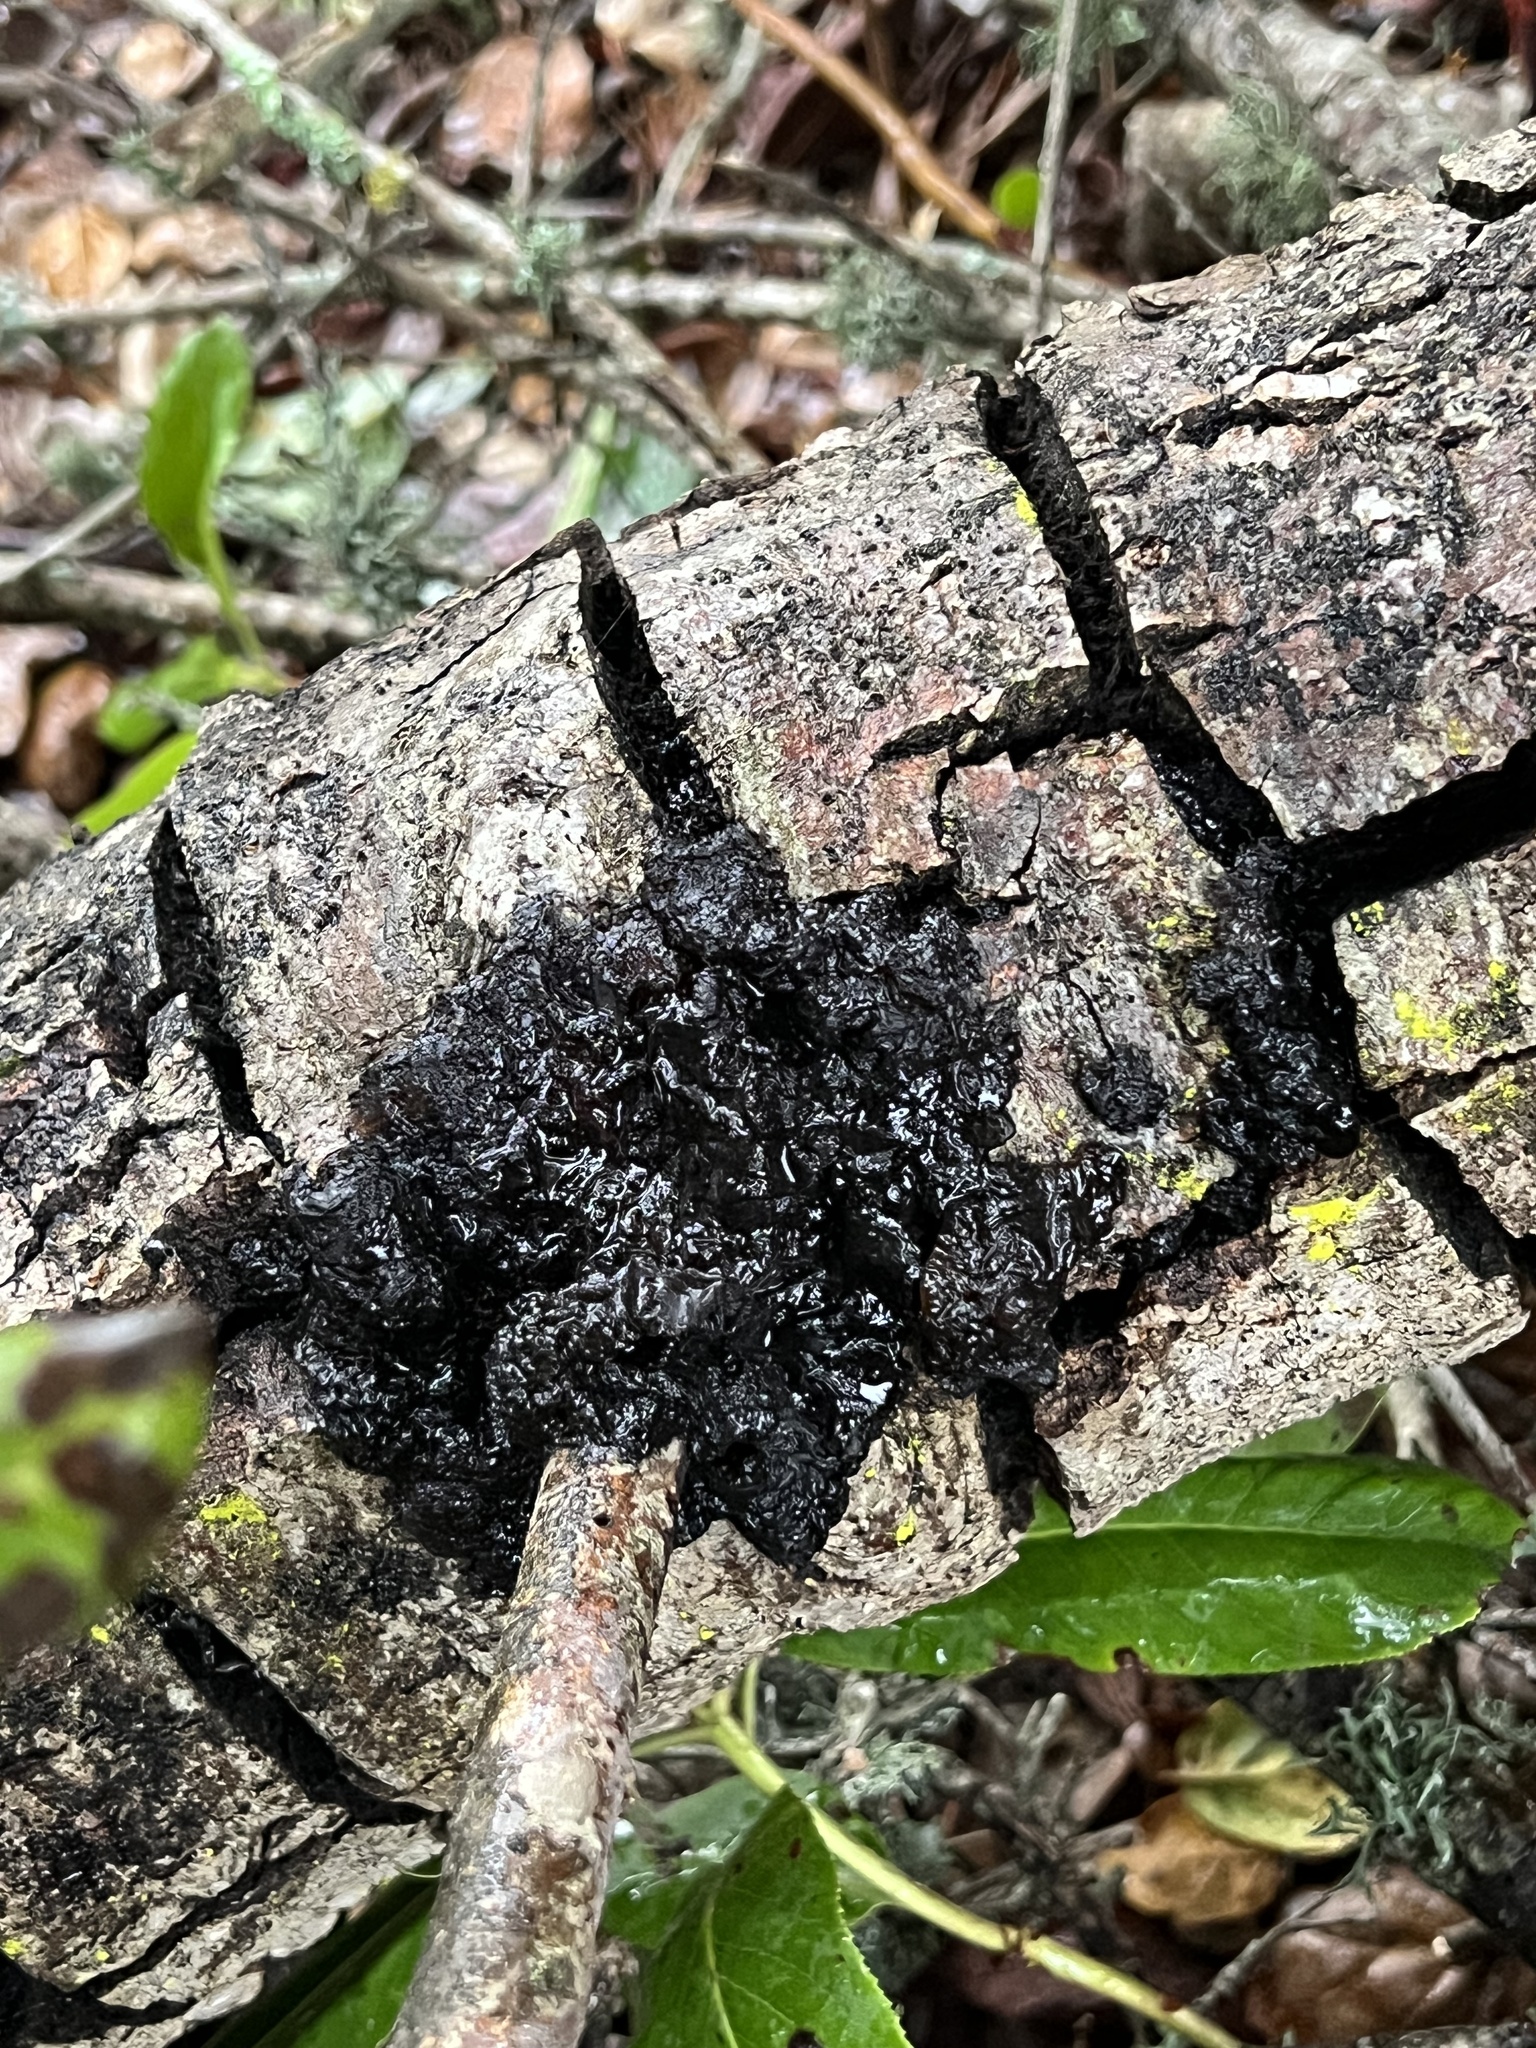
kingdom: Fungi
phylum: Basidiomycota
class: Agaricomycetes
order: Auriculariales
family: Auriculariaceae
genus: Exidia
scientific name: Exidia glandulosa
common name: Witches' butter
